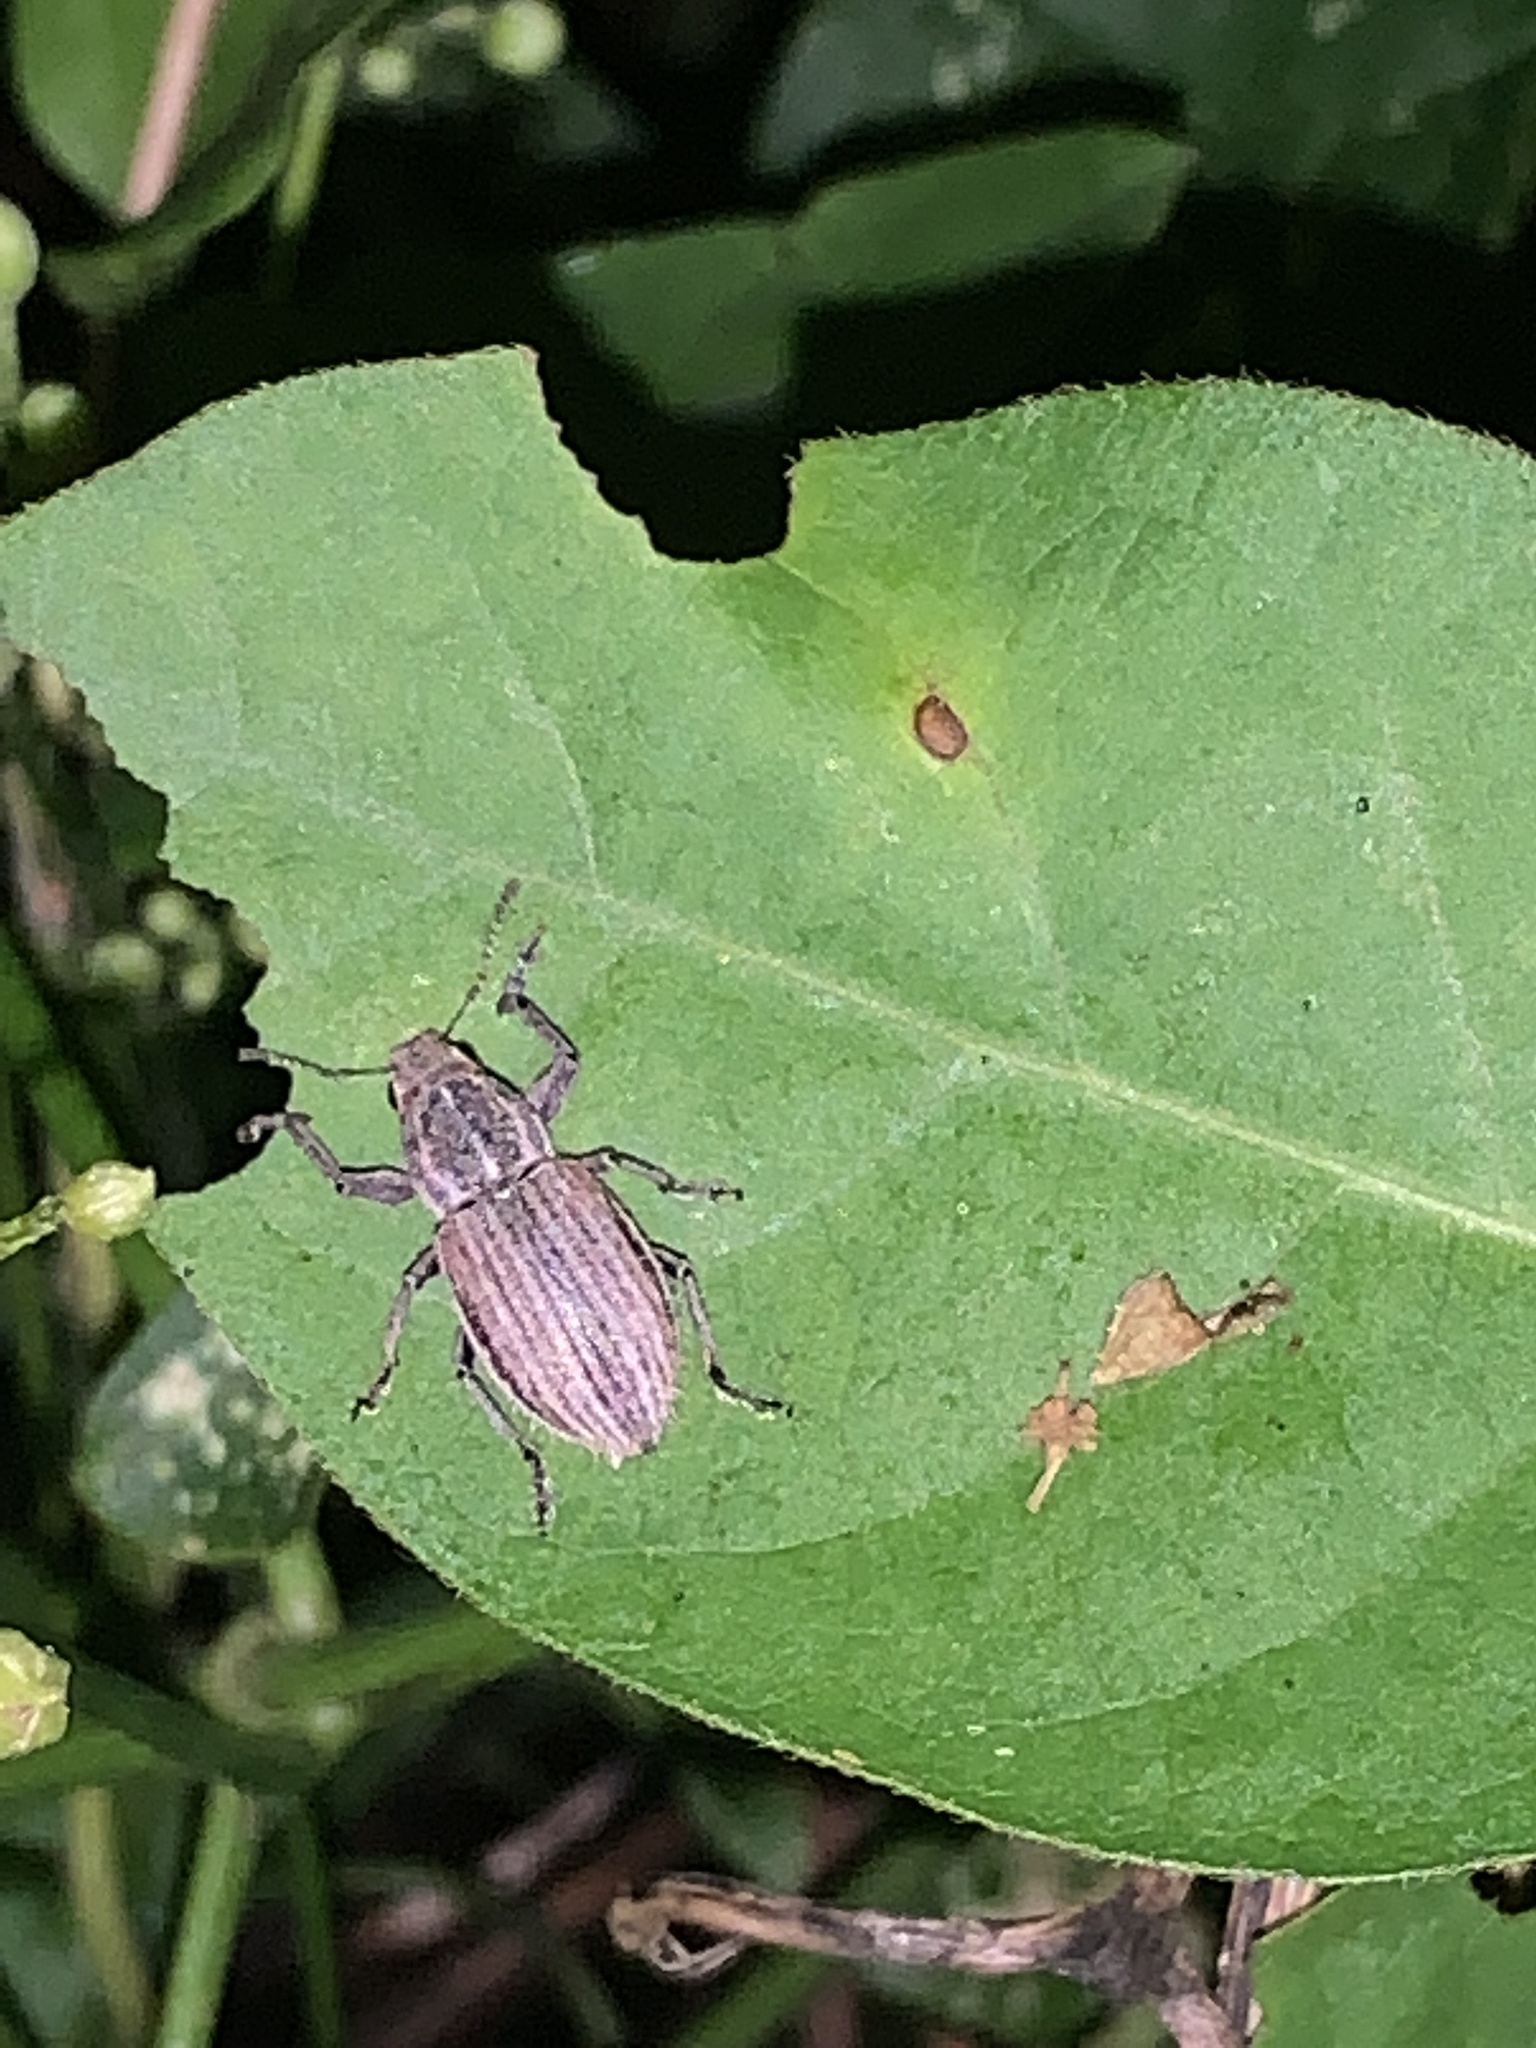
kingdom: Animalia
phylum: Arthropoda
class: Insecta
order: Coleoptera
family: Curculionidae
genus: Naupactus
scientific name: Naupactus leucoloma
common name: Whitefringed beetle
